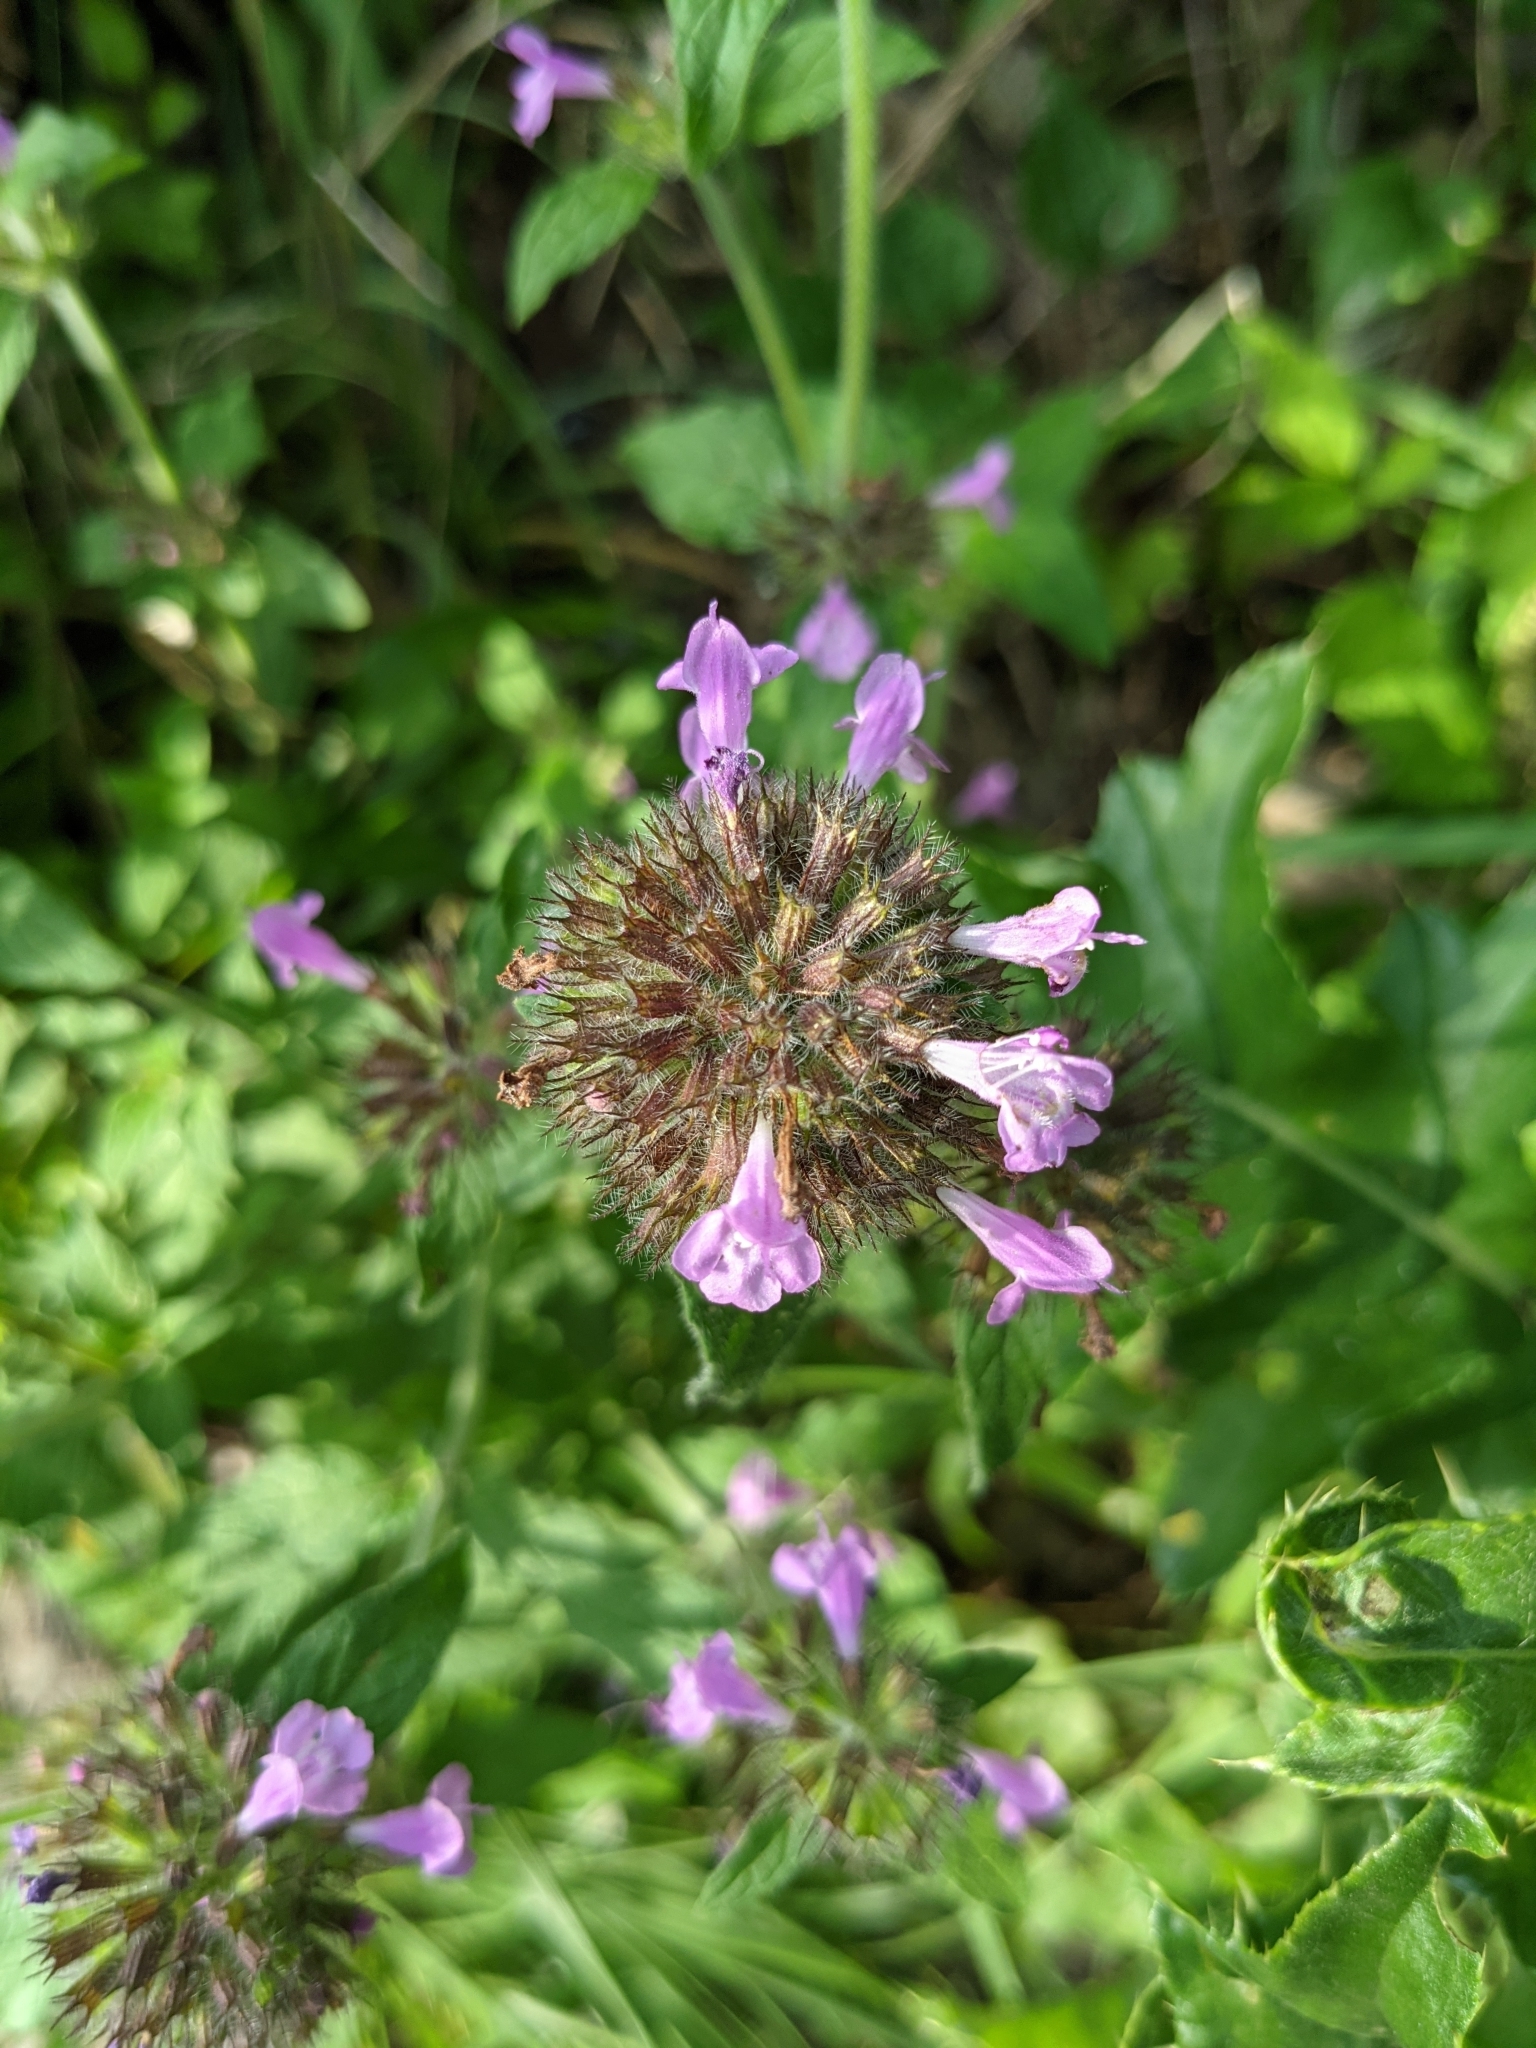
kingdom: Plantae
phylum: Tracheophyta
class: Magnoliopsida
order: Lamiales
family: Lamiaceae
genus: Clinopodium
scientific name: Clinopodium vulgare
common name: Wild basil
